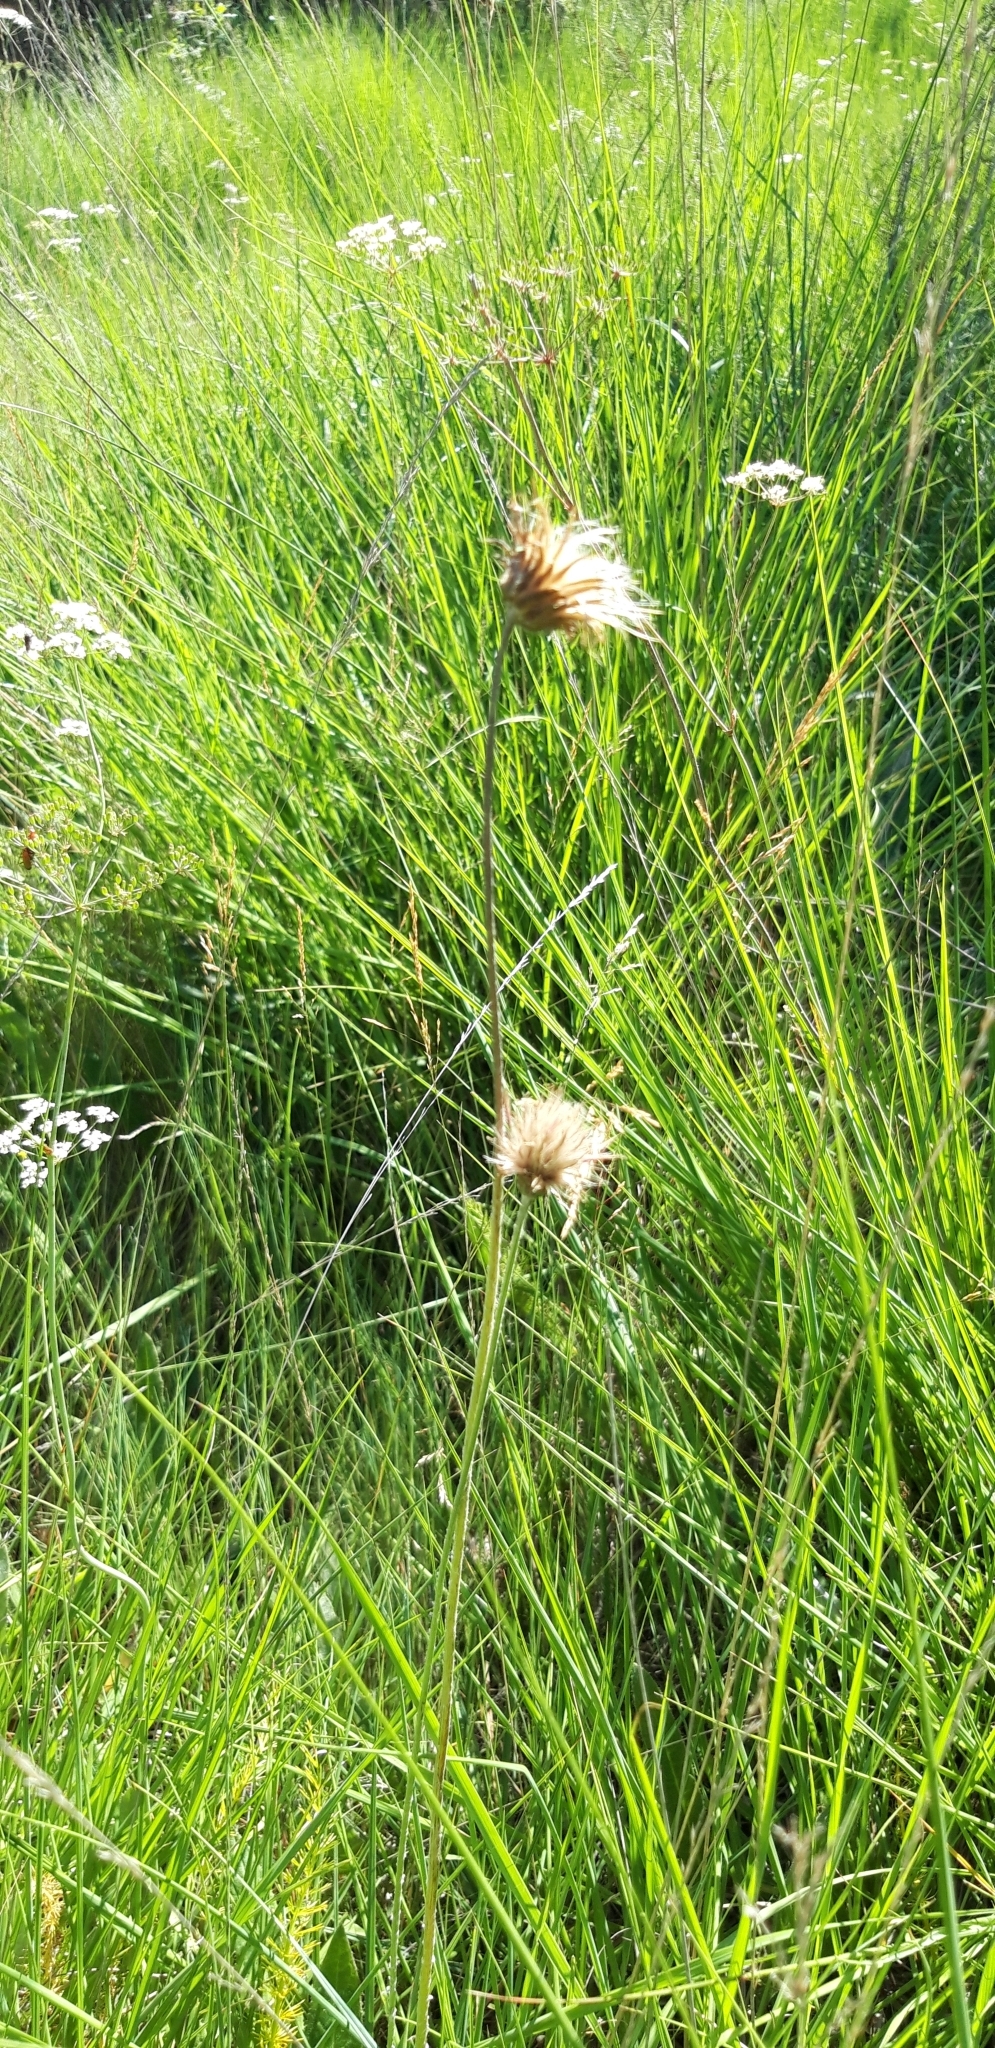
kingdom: Plantae
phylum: Tracheophyta
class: Magnoliopsida
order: Asterales
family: Asteraceae
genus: Cirsium
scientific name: Cirsium dissectum
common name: Meadow thistle
